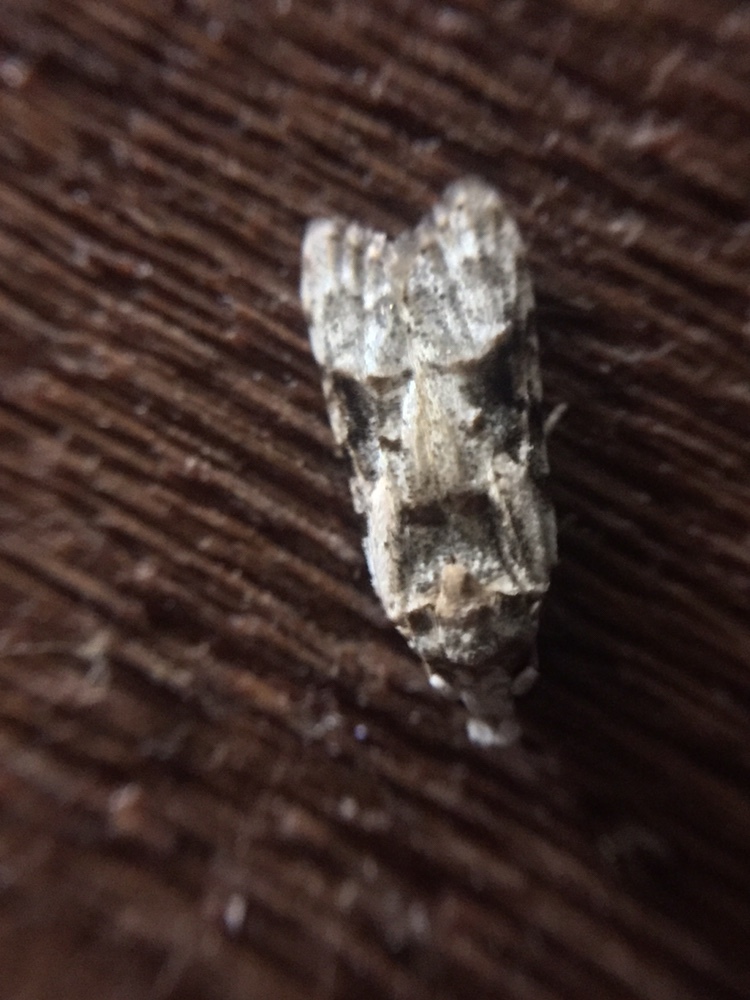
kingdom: Animalia
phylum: Arthropoda
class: Insecta
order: Lepidoptera
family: Carposinidae
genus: Coscinoptycha
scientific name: Coscinoptycha improbana
